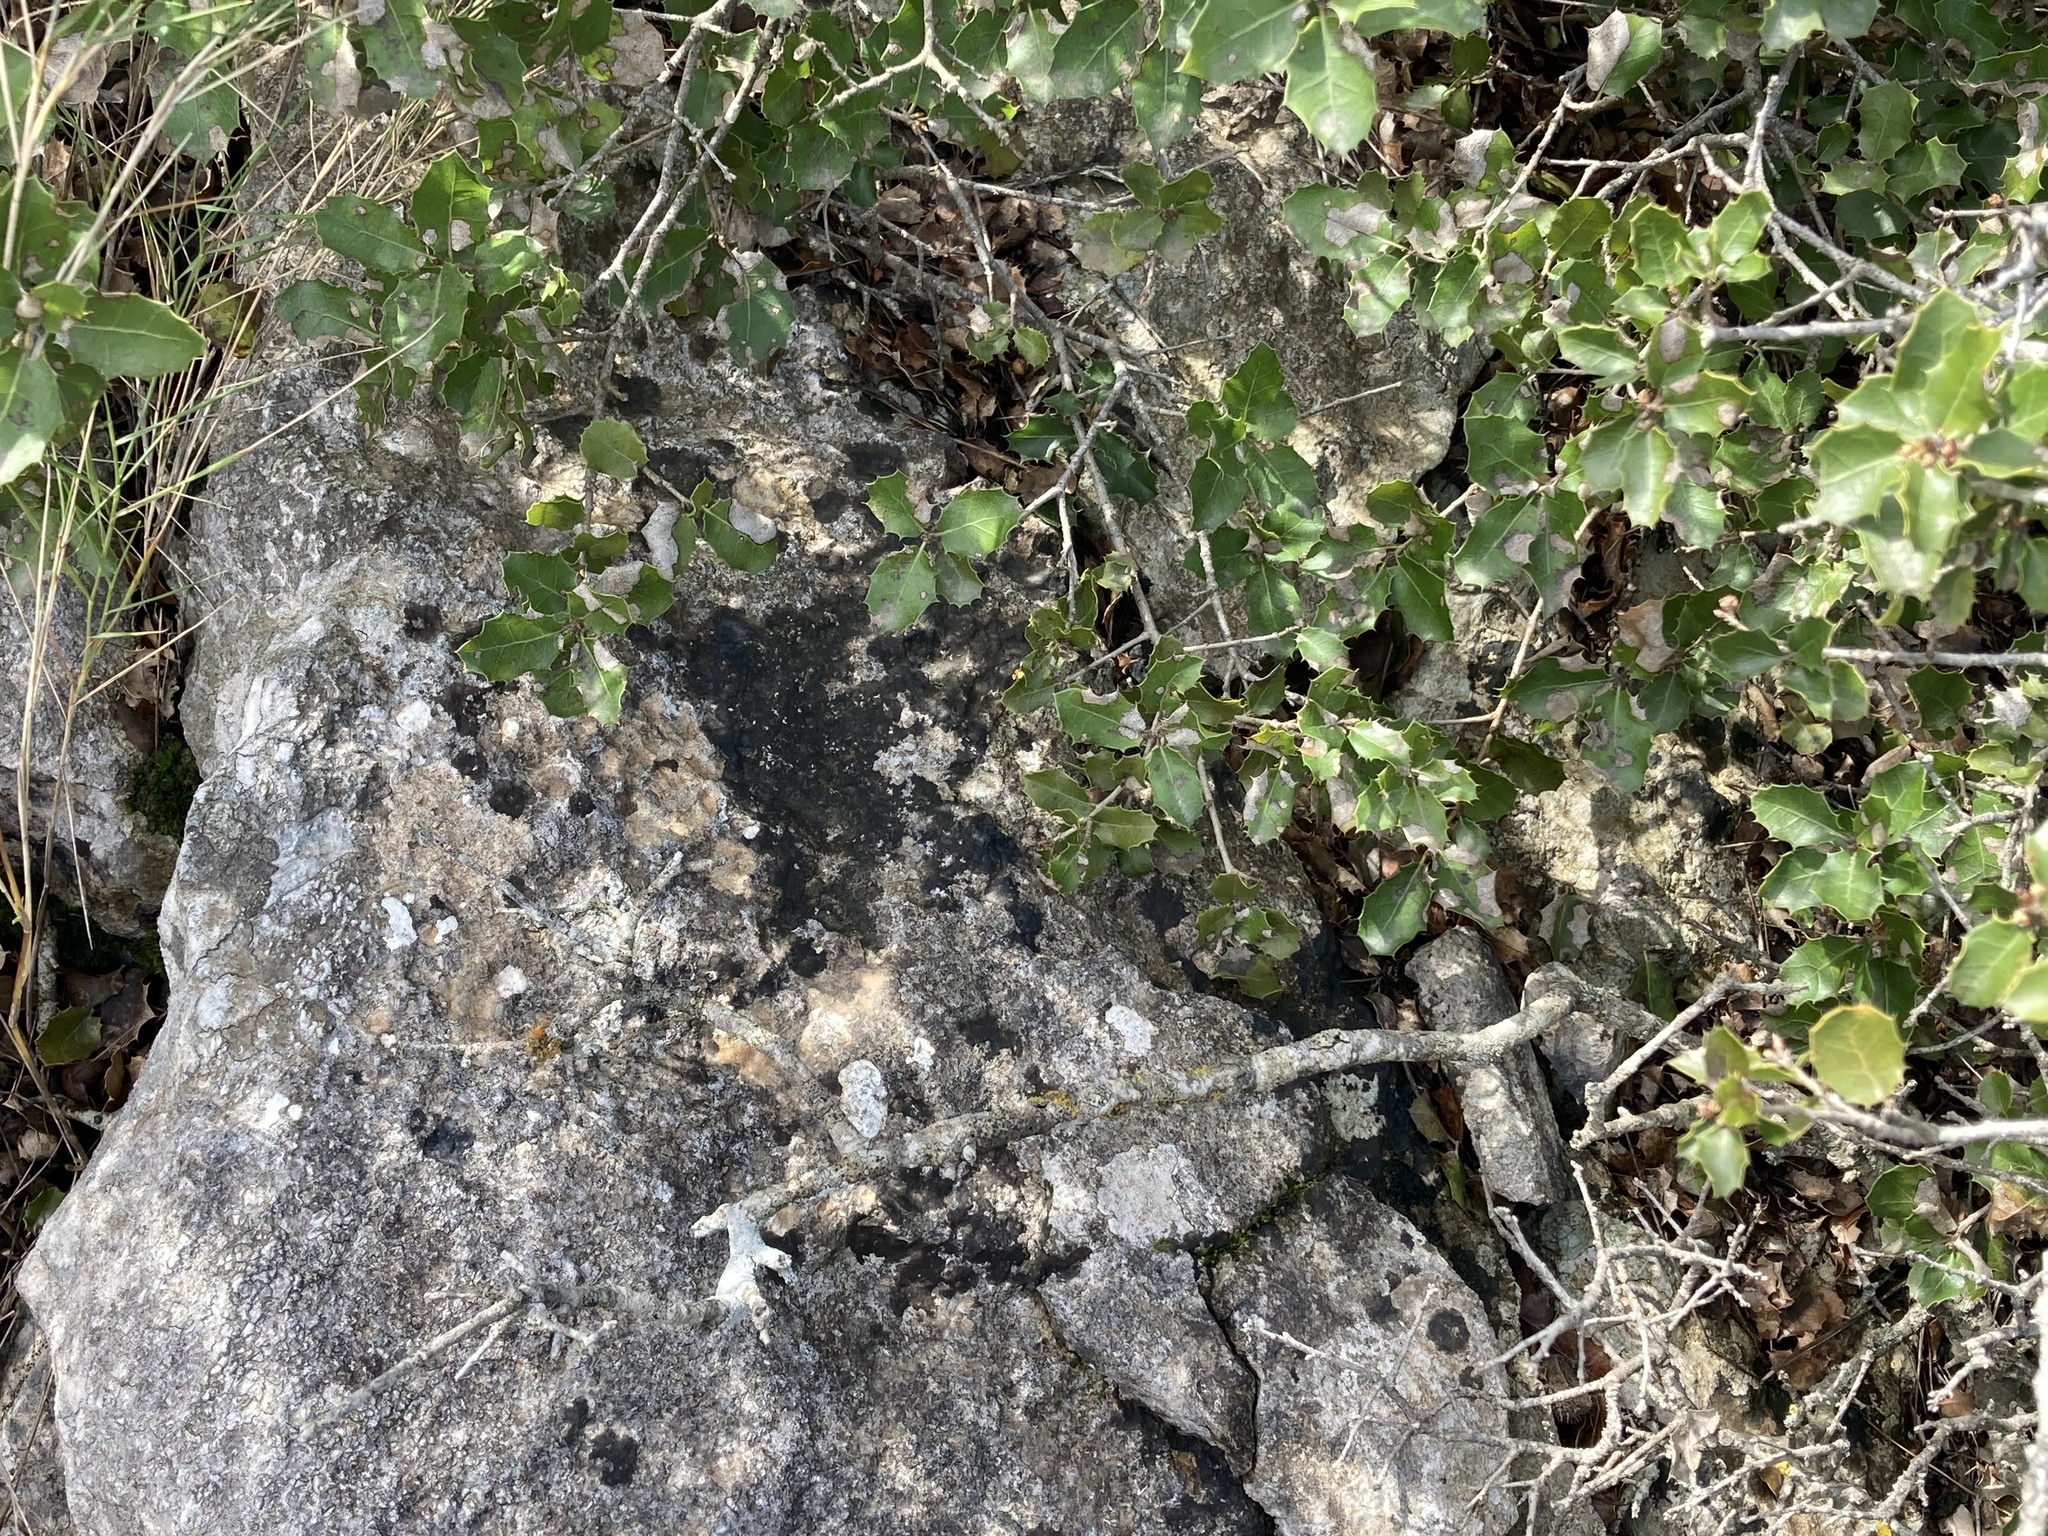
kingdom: Fungi
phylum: Ascomycota
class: Lecanoromycetes
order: Teloschistales
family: Teloschistaceae
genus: Niorma
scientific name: Niorma chrysophthalma
